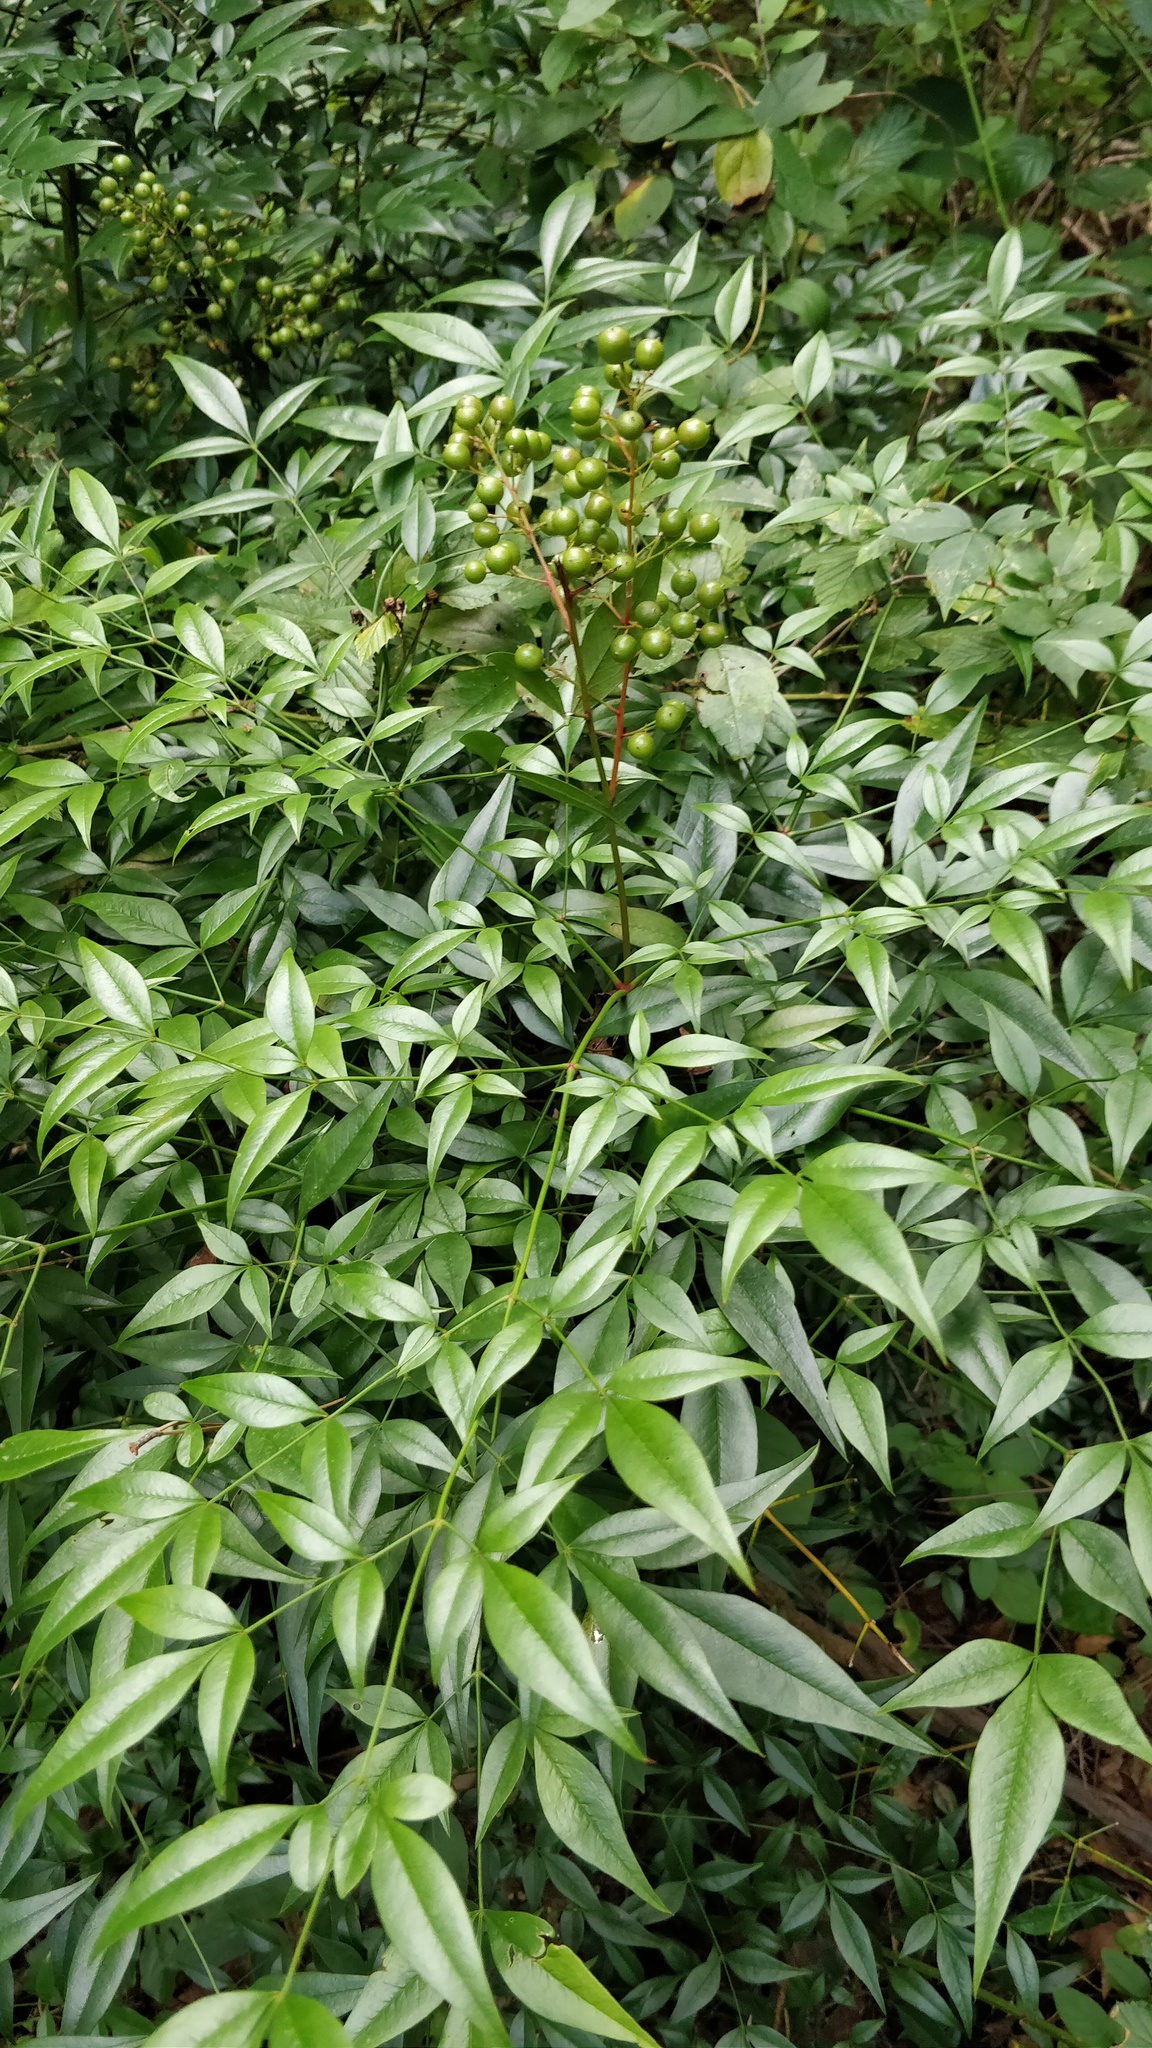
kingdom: Plantae
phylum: Tracheophyta
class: Magnoliopsida
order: Ranunculales
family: Berberidaceae
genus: Nandina
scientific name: Nandina domestica
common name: Sacred bamboo
